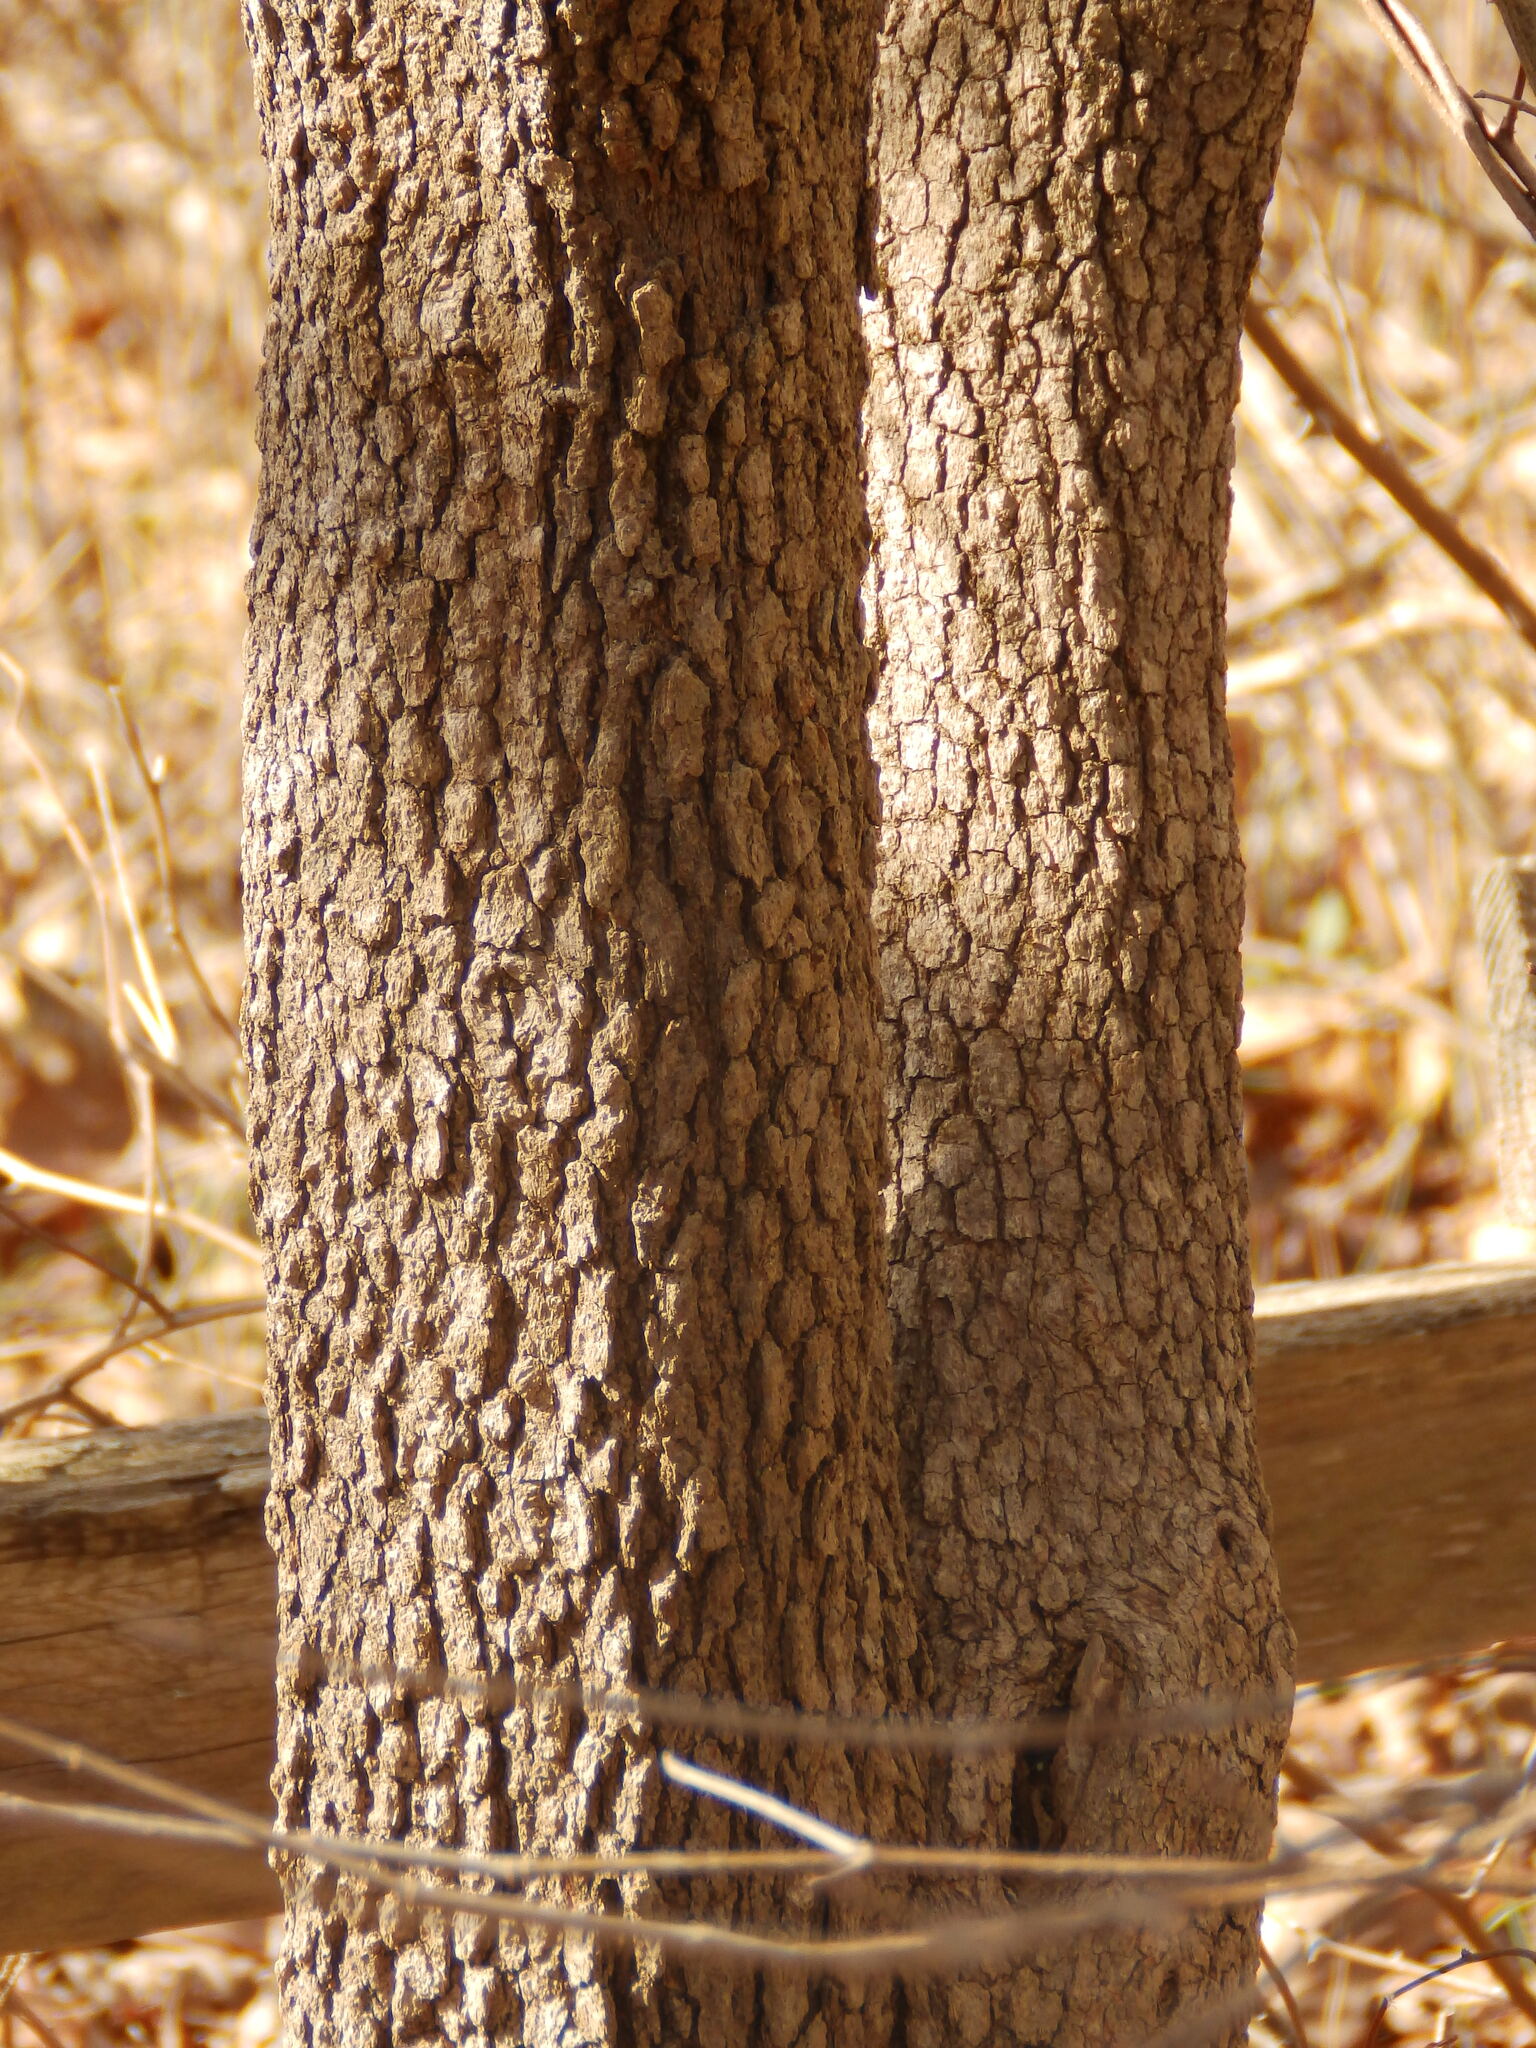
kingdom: Plantae
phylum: Tracheophyta
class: Magnoliopsida
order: Dipsacales
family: Viburnaceae
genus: Viburnum
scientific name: Viburnum prunifolium
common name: Black haw
